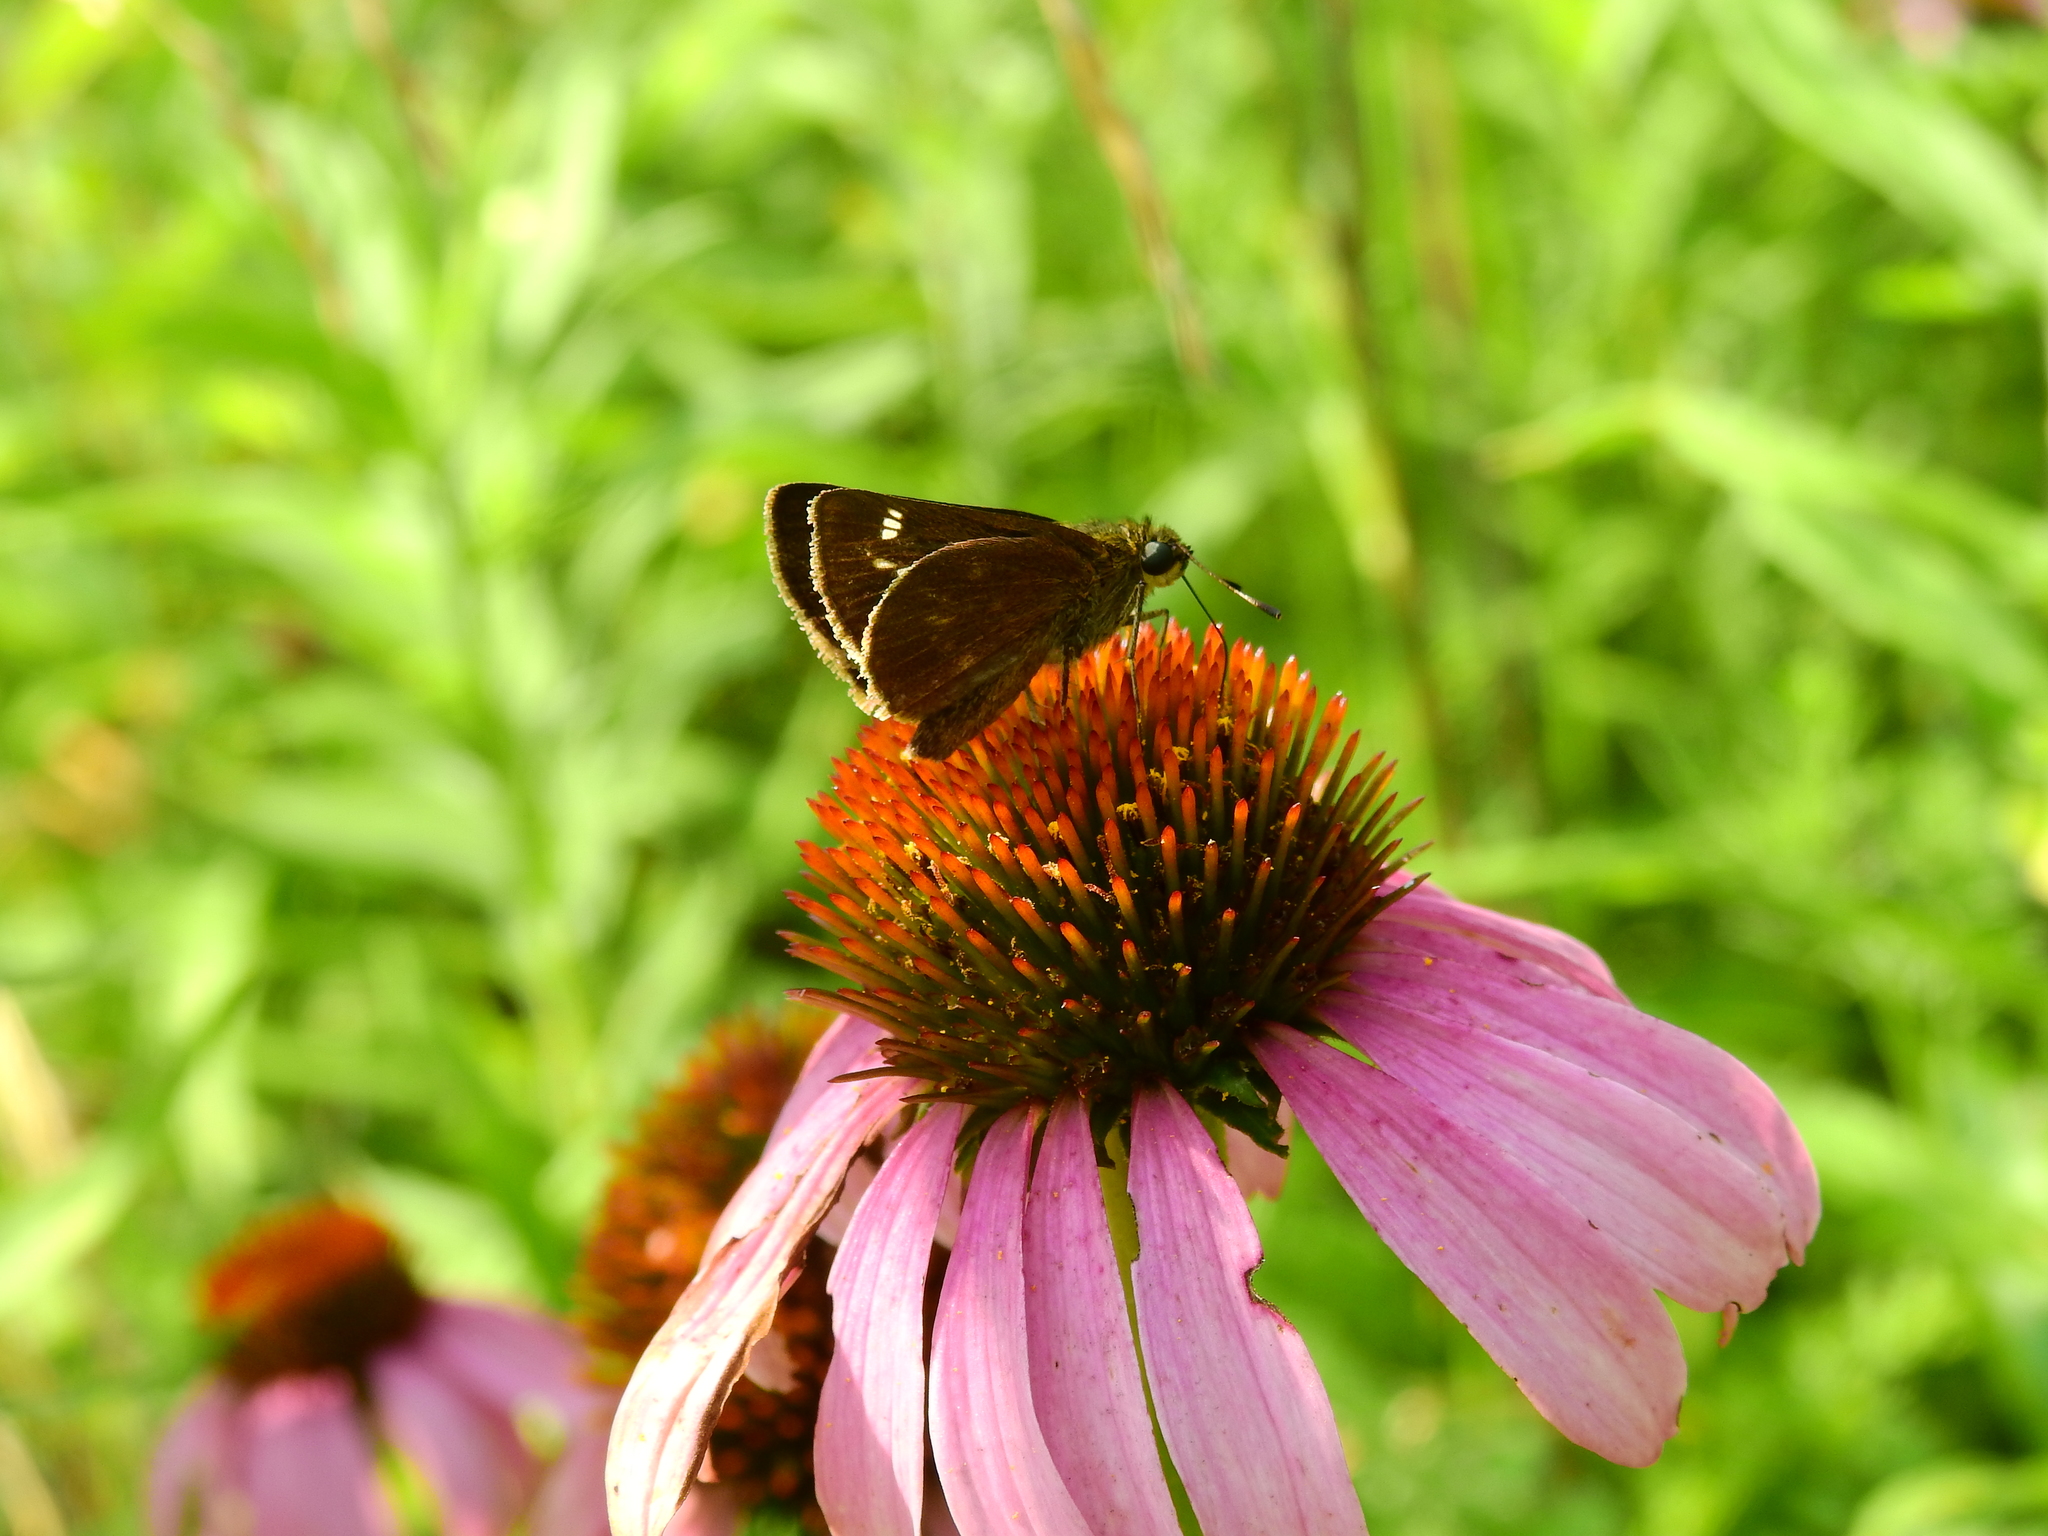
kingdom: Animalia
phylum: Arthropoda
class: Insecta
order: Lepidoptera
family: Hesperiidae
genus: Vernia
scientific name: Vernia verna
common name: Little glassywing
